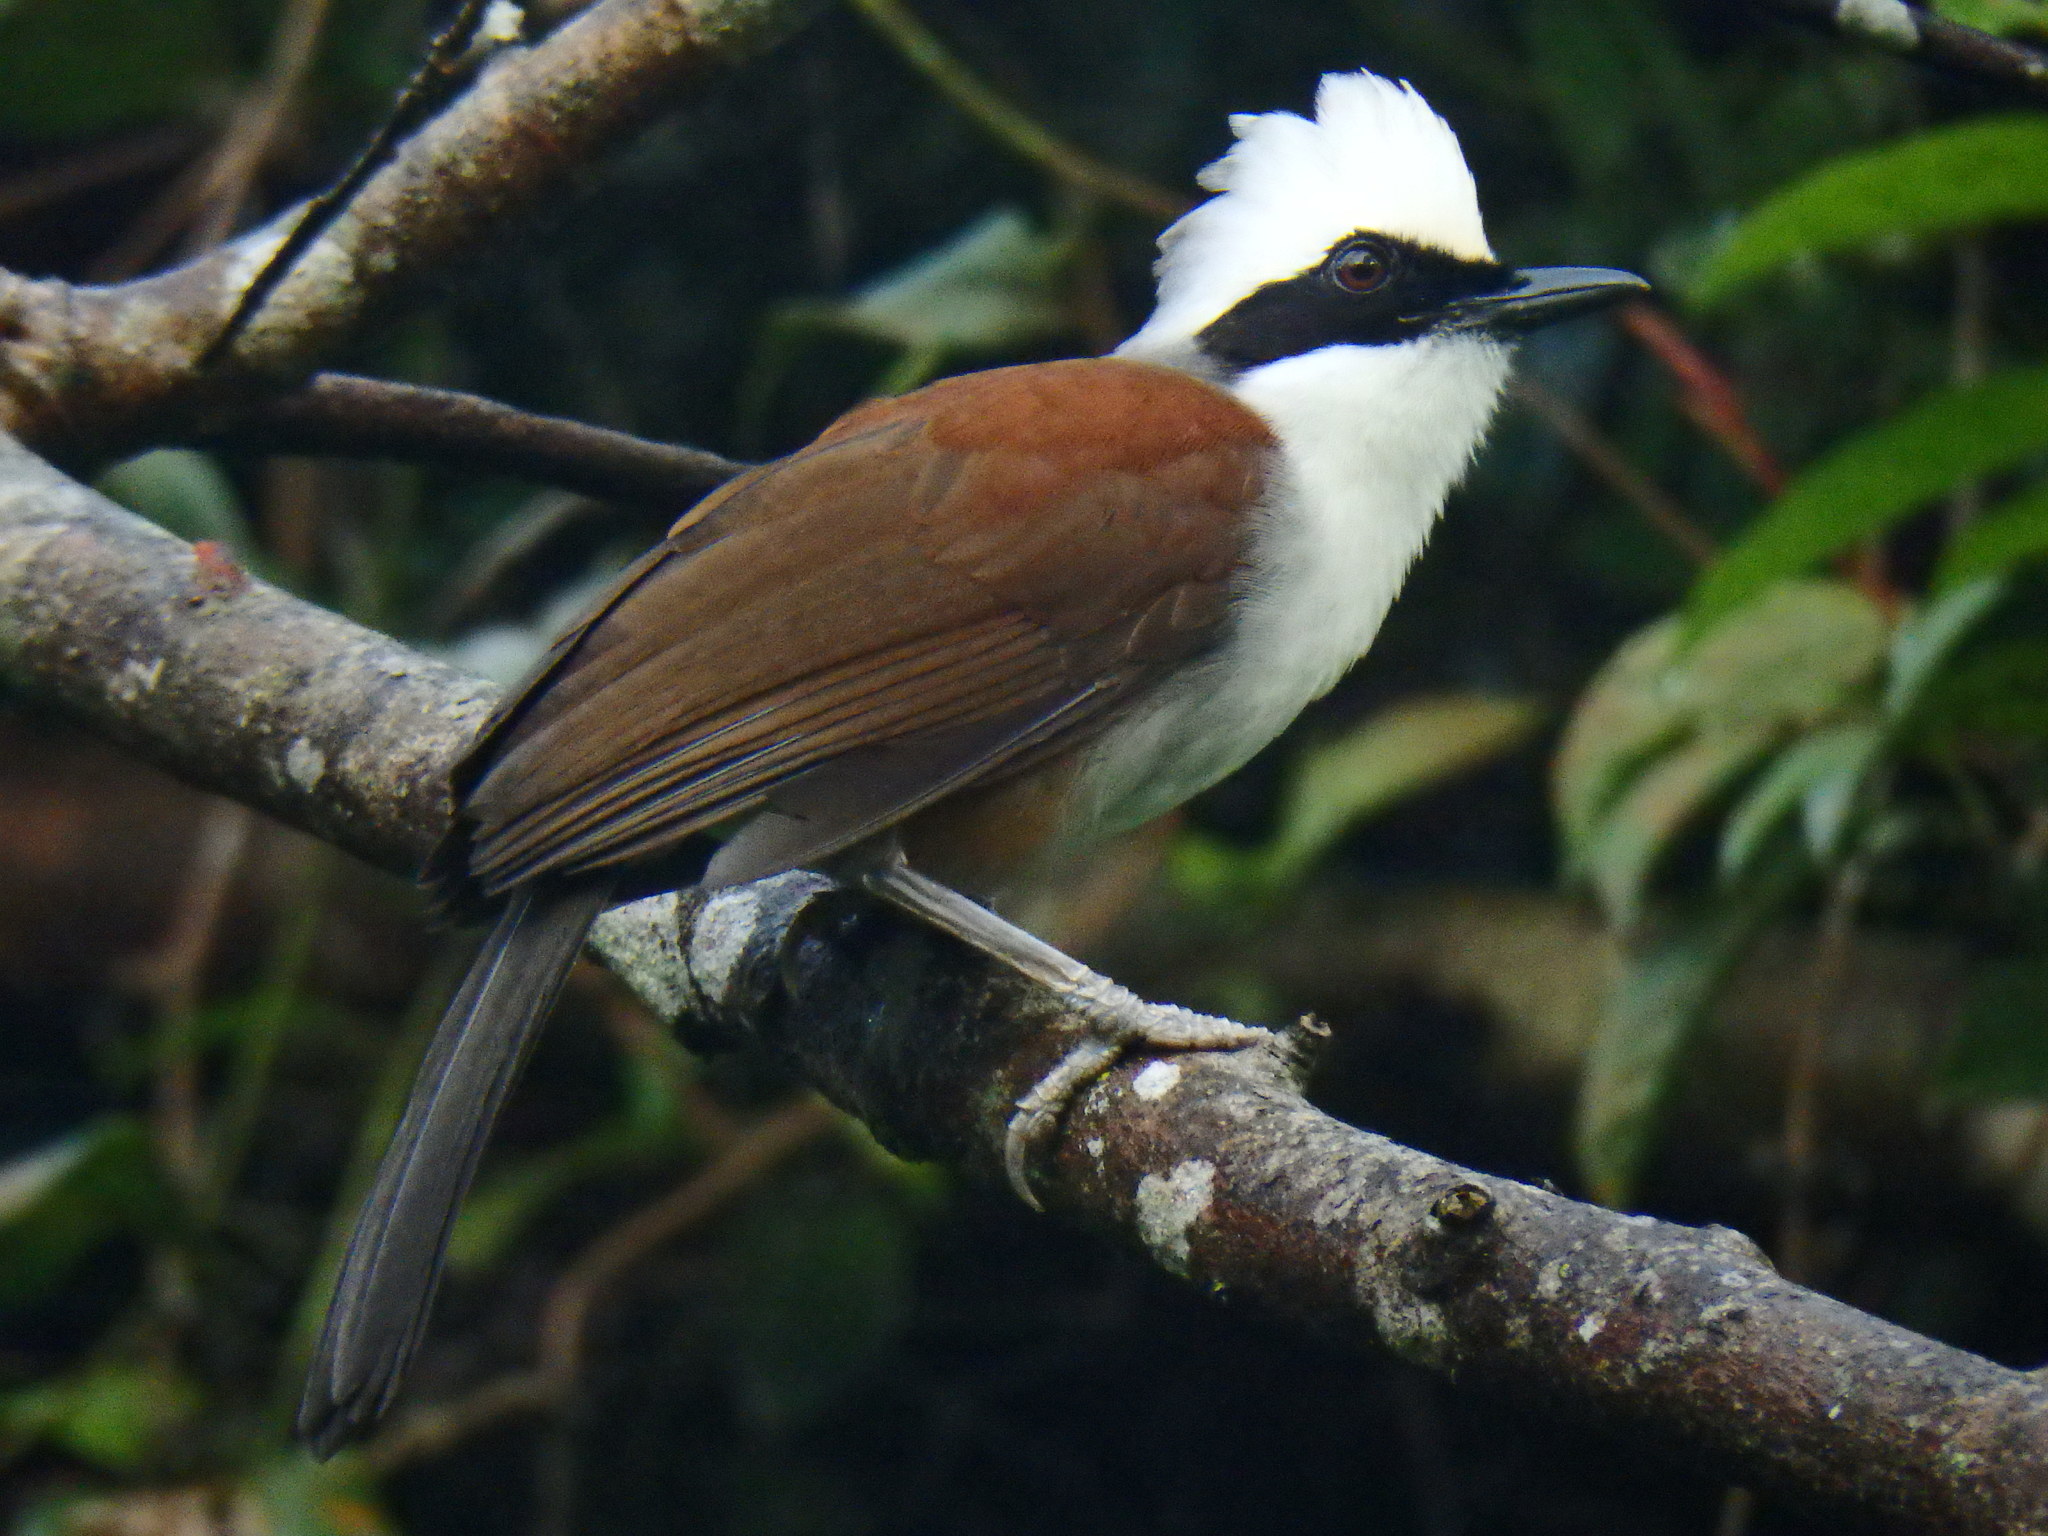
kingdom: Animalia
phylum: Chordata
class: Aves
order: Passeriformes
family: Leiothrichidae
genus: Garrulax
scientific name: Garrulax leucolophus
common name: White-crested laughingthrush
